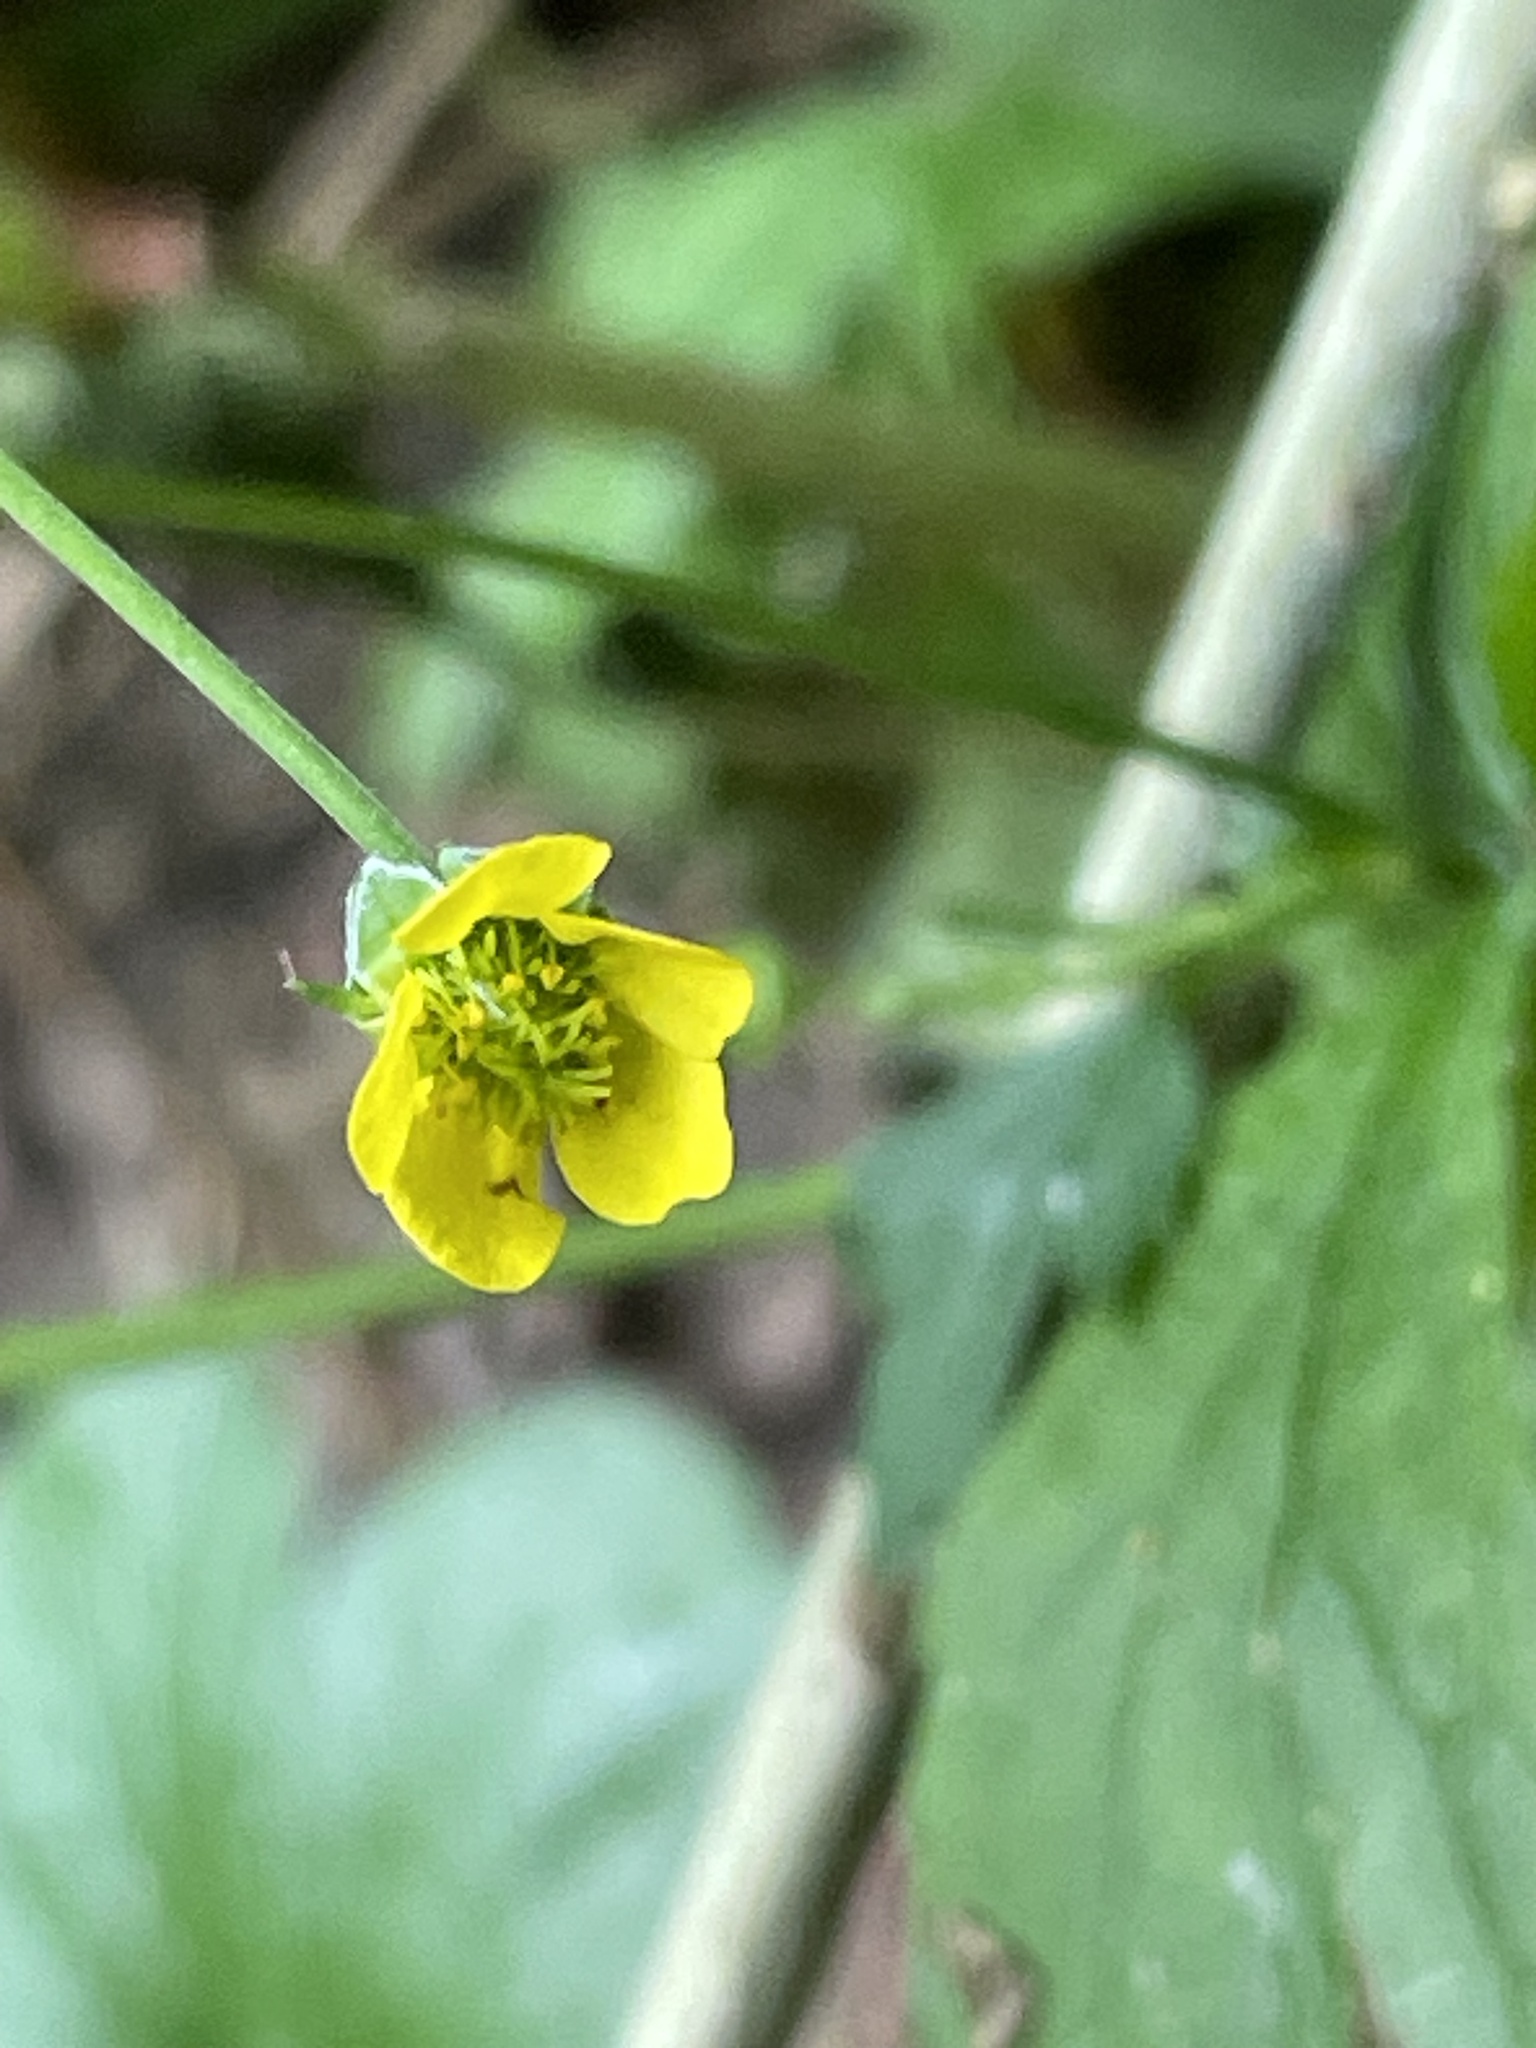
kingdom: Plantae
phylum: Tracheophyta
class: Magnoliopsida
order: Rosales
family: Rosaceae
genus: Geum
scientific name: Geum urbanum
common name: Wood avens
